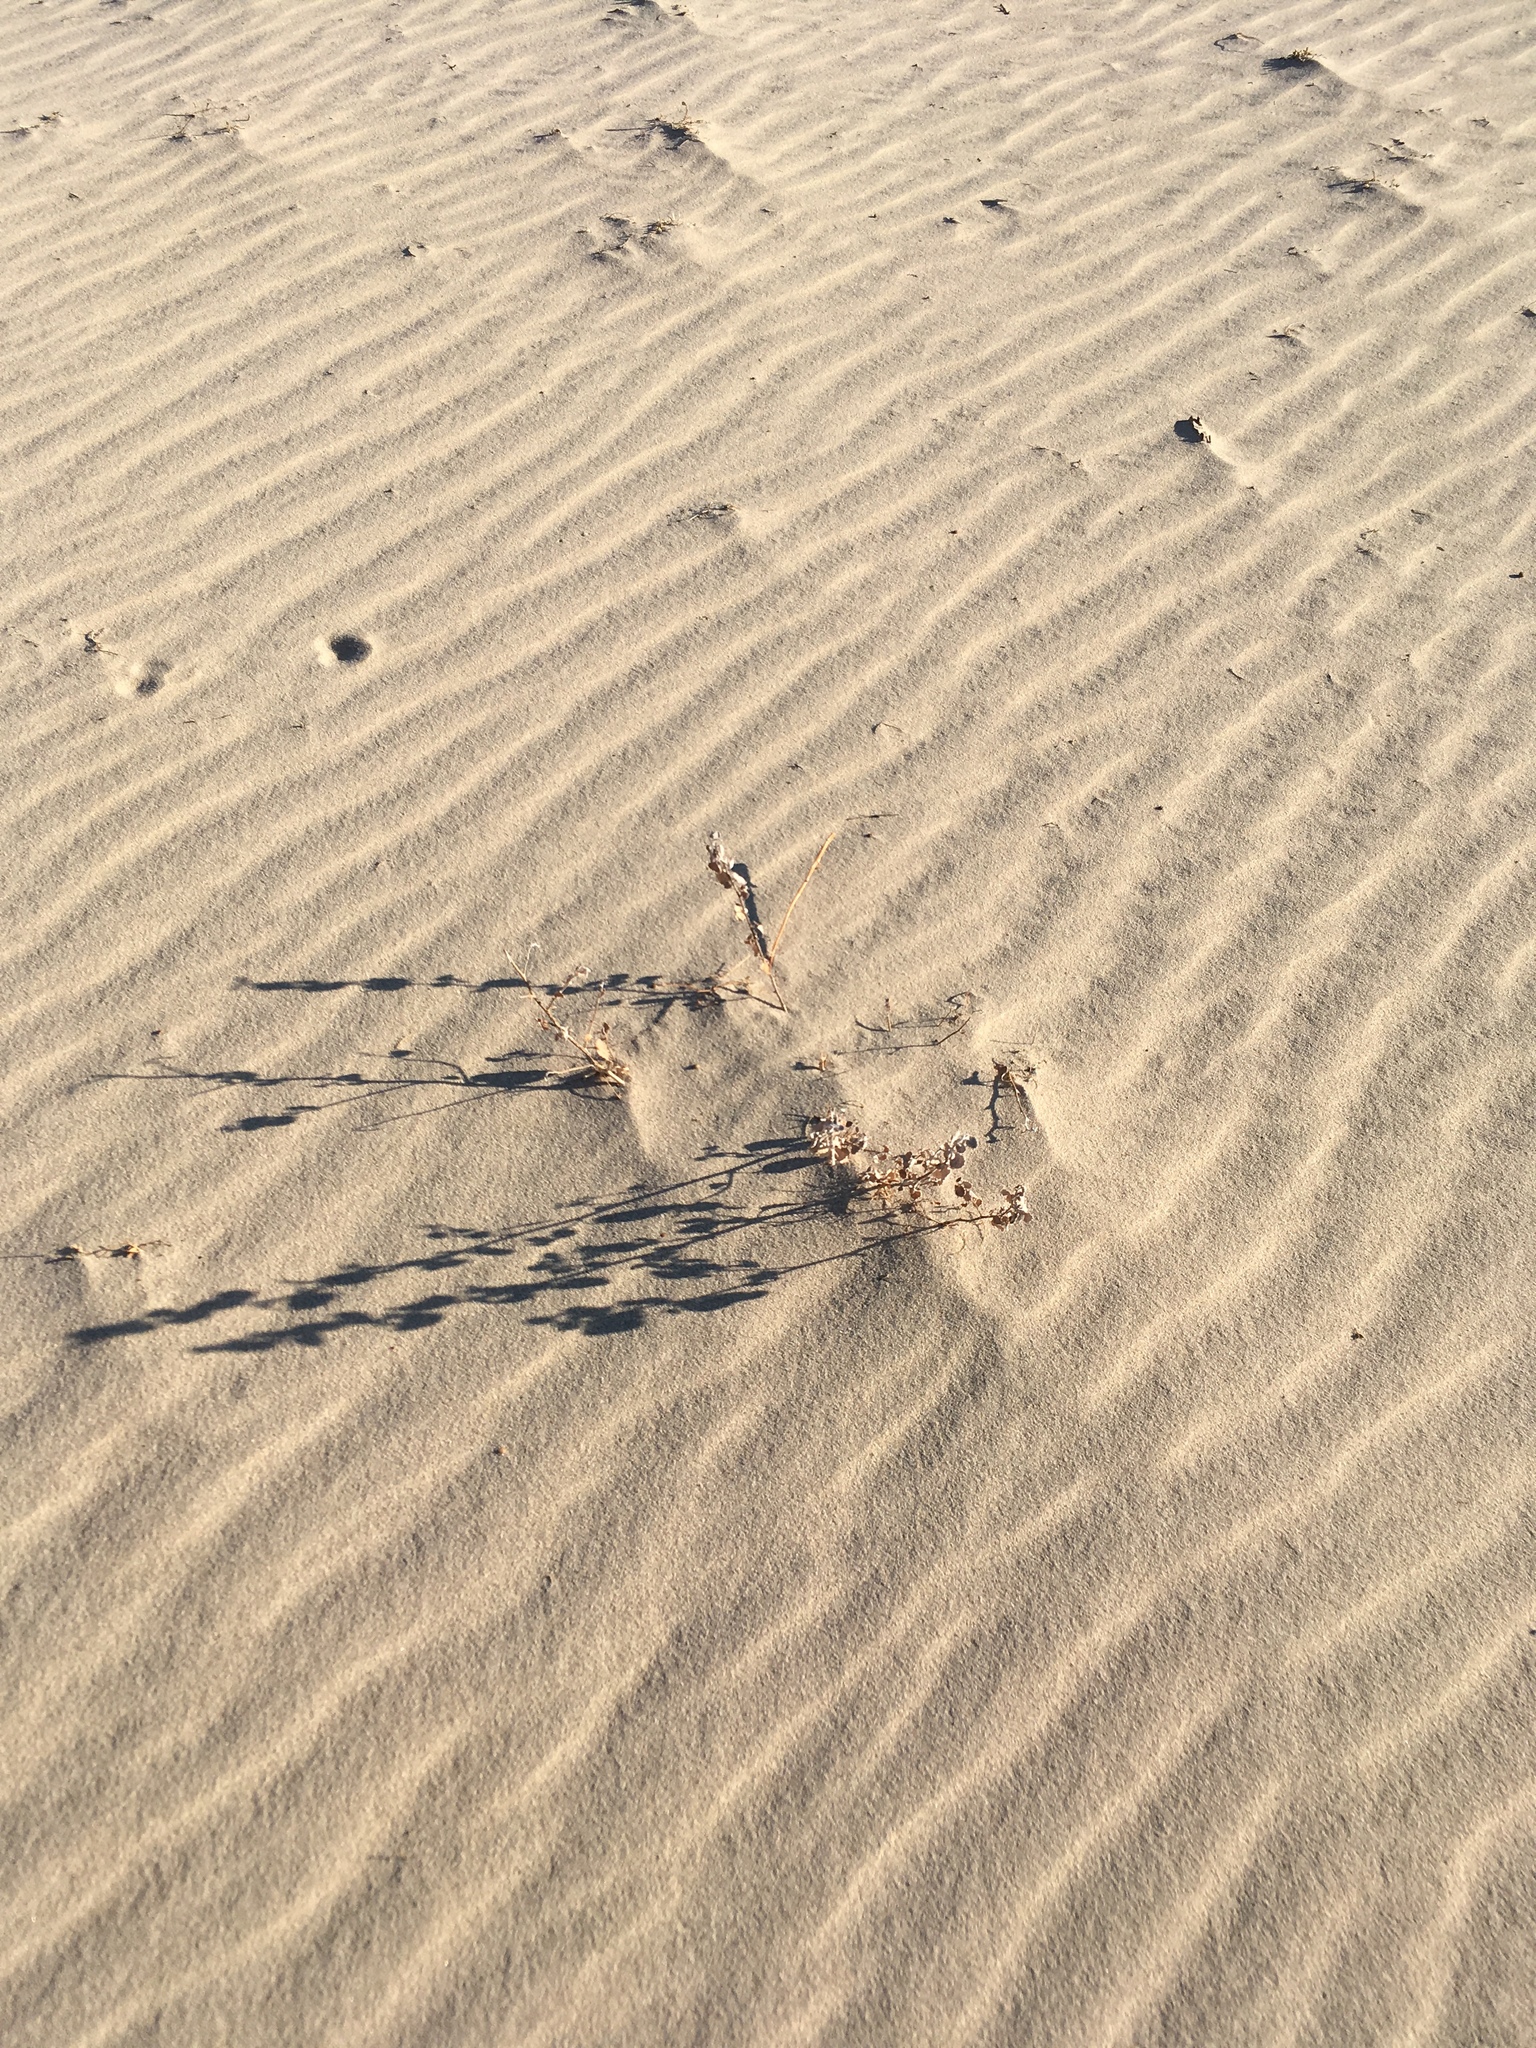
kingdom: Plantae
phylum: Tracheophyta
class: Magnoliopsida
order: Asterales
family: Asteraceae
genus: Dicoria
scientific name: Dicoria canescens
